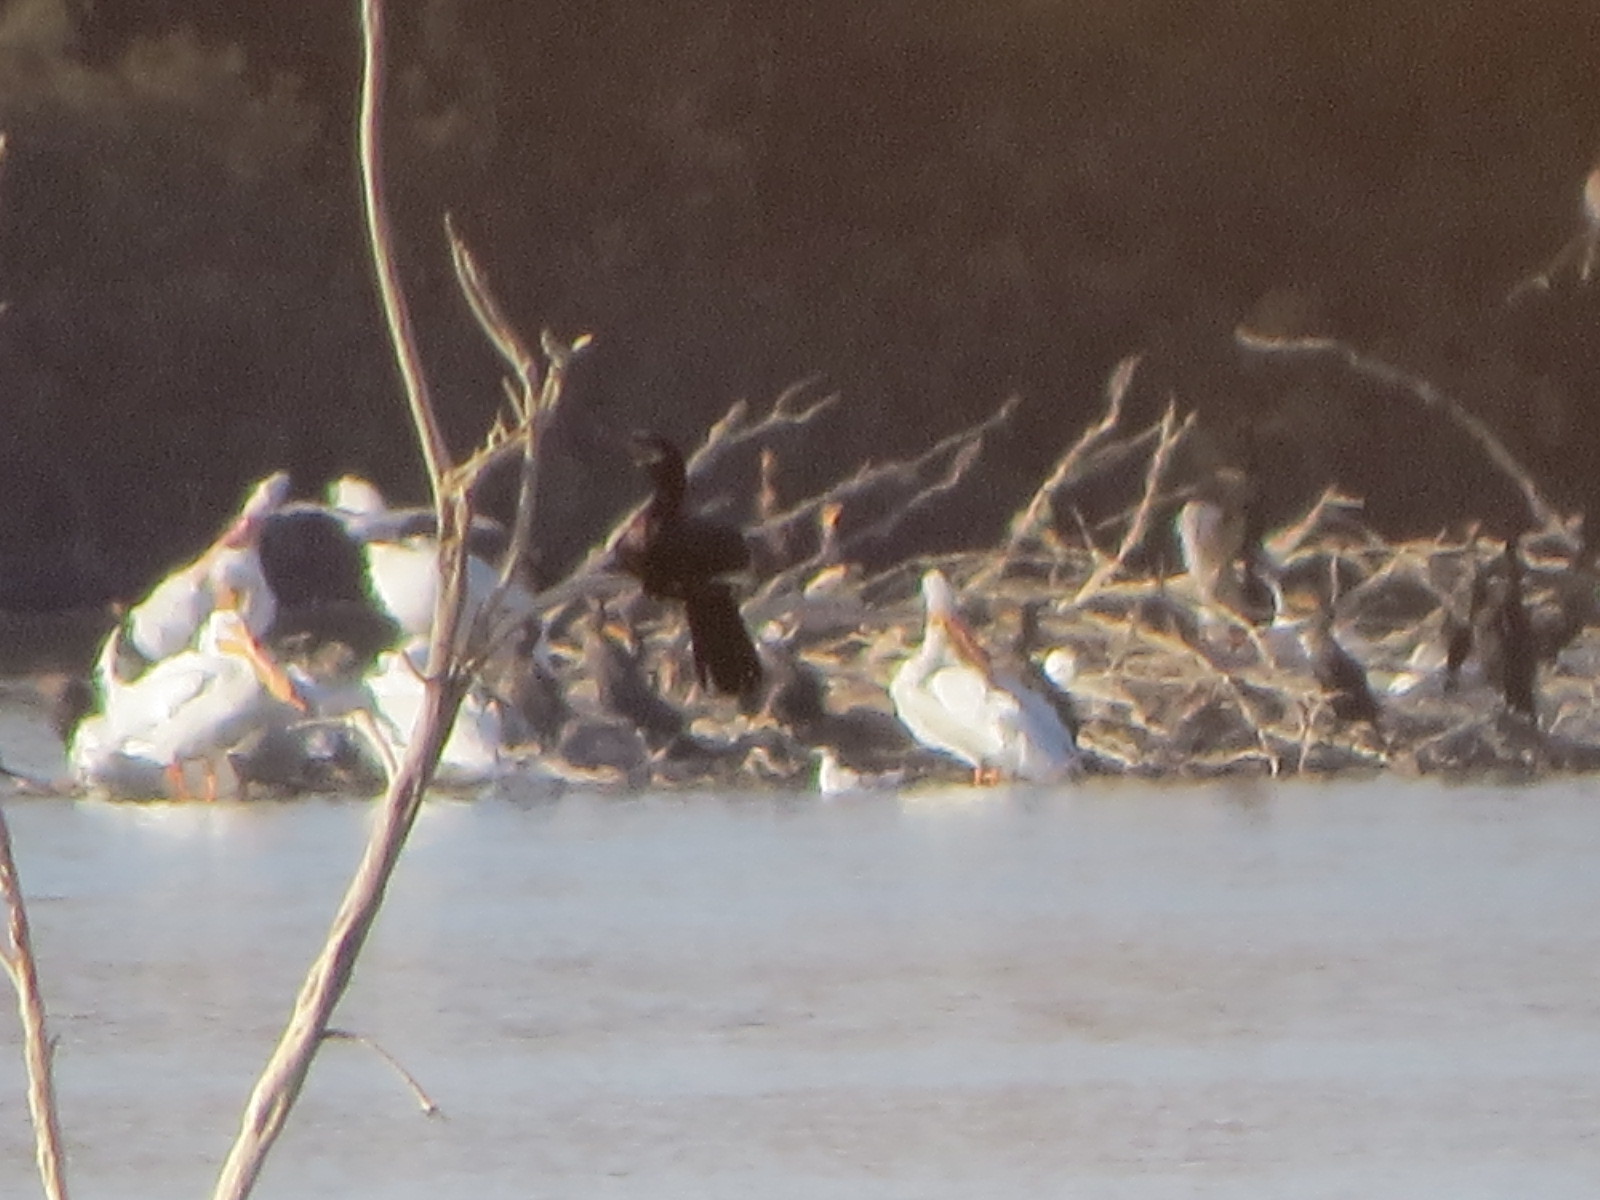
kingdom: Animalia
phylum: Chordata
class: Aves
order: Suliformes
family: Phalacrocoracidae
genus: Phalacrocorax
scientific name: Phalacrocorax brasilianus
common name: Neotropic cormorant
